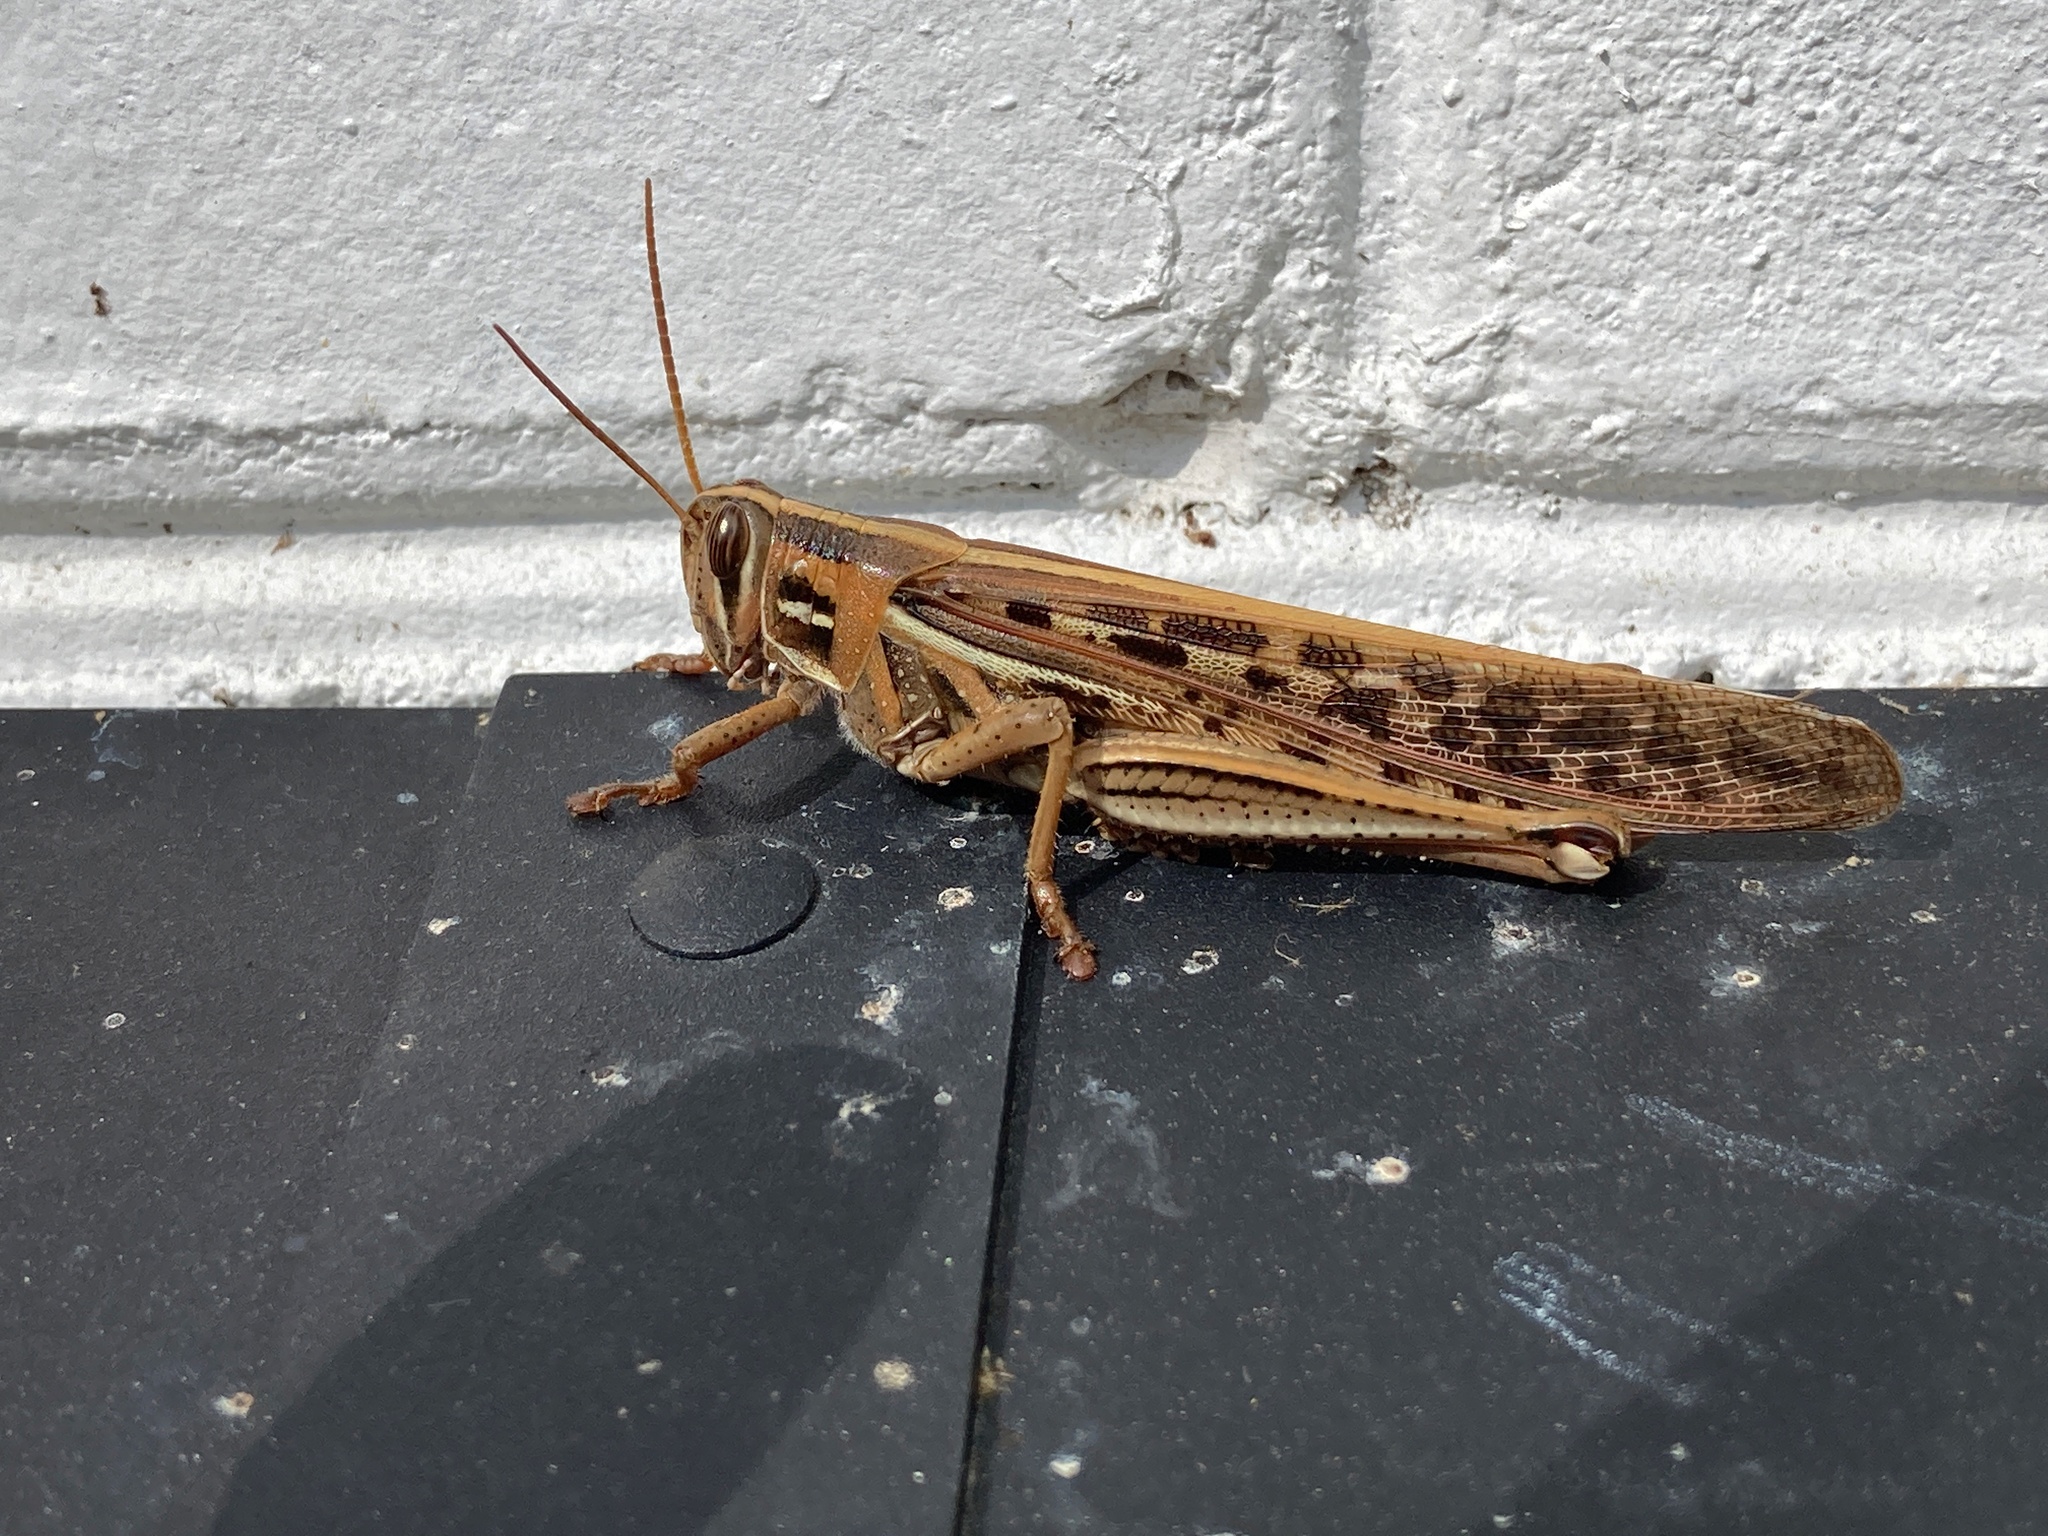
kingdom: Animalia
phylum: Arthropoda
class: Insecta
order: Orthoptera
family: Acrididae
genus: Schistocerca
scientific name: Schistocerca americana
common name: American bird locust
